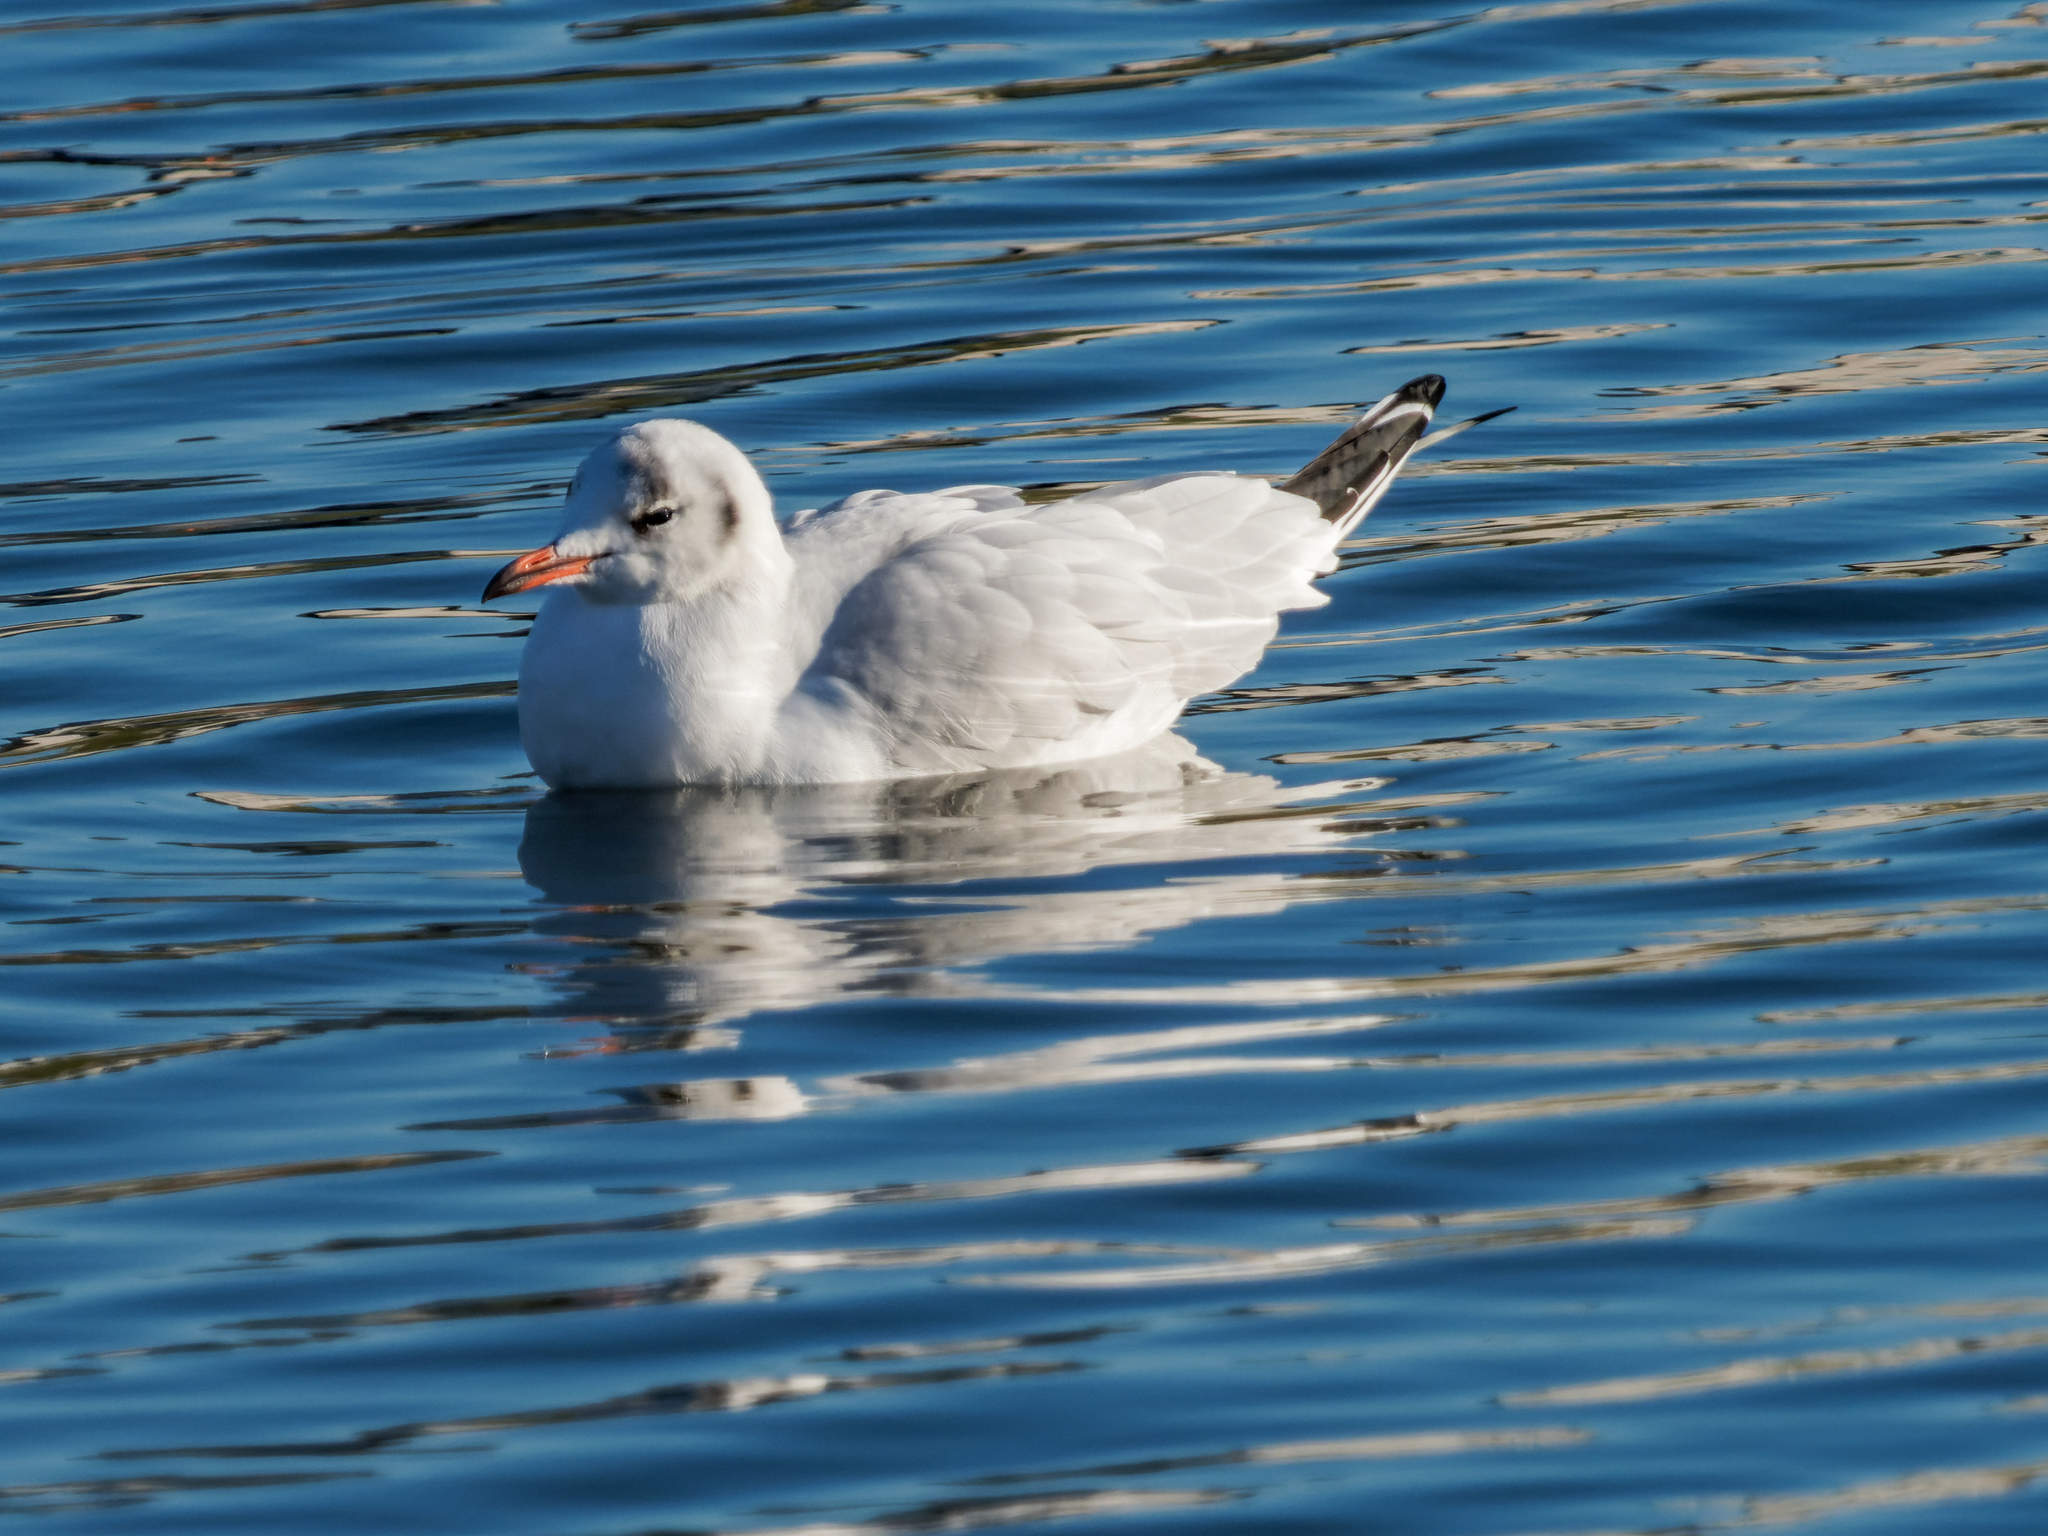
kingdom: Animalia
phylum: Chordata
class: Aves
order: Charadriiformes
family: Laridae
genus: Chroicocephalus
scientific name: Chroicocephalus ridibundus
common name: Black-headed gull
